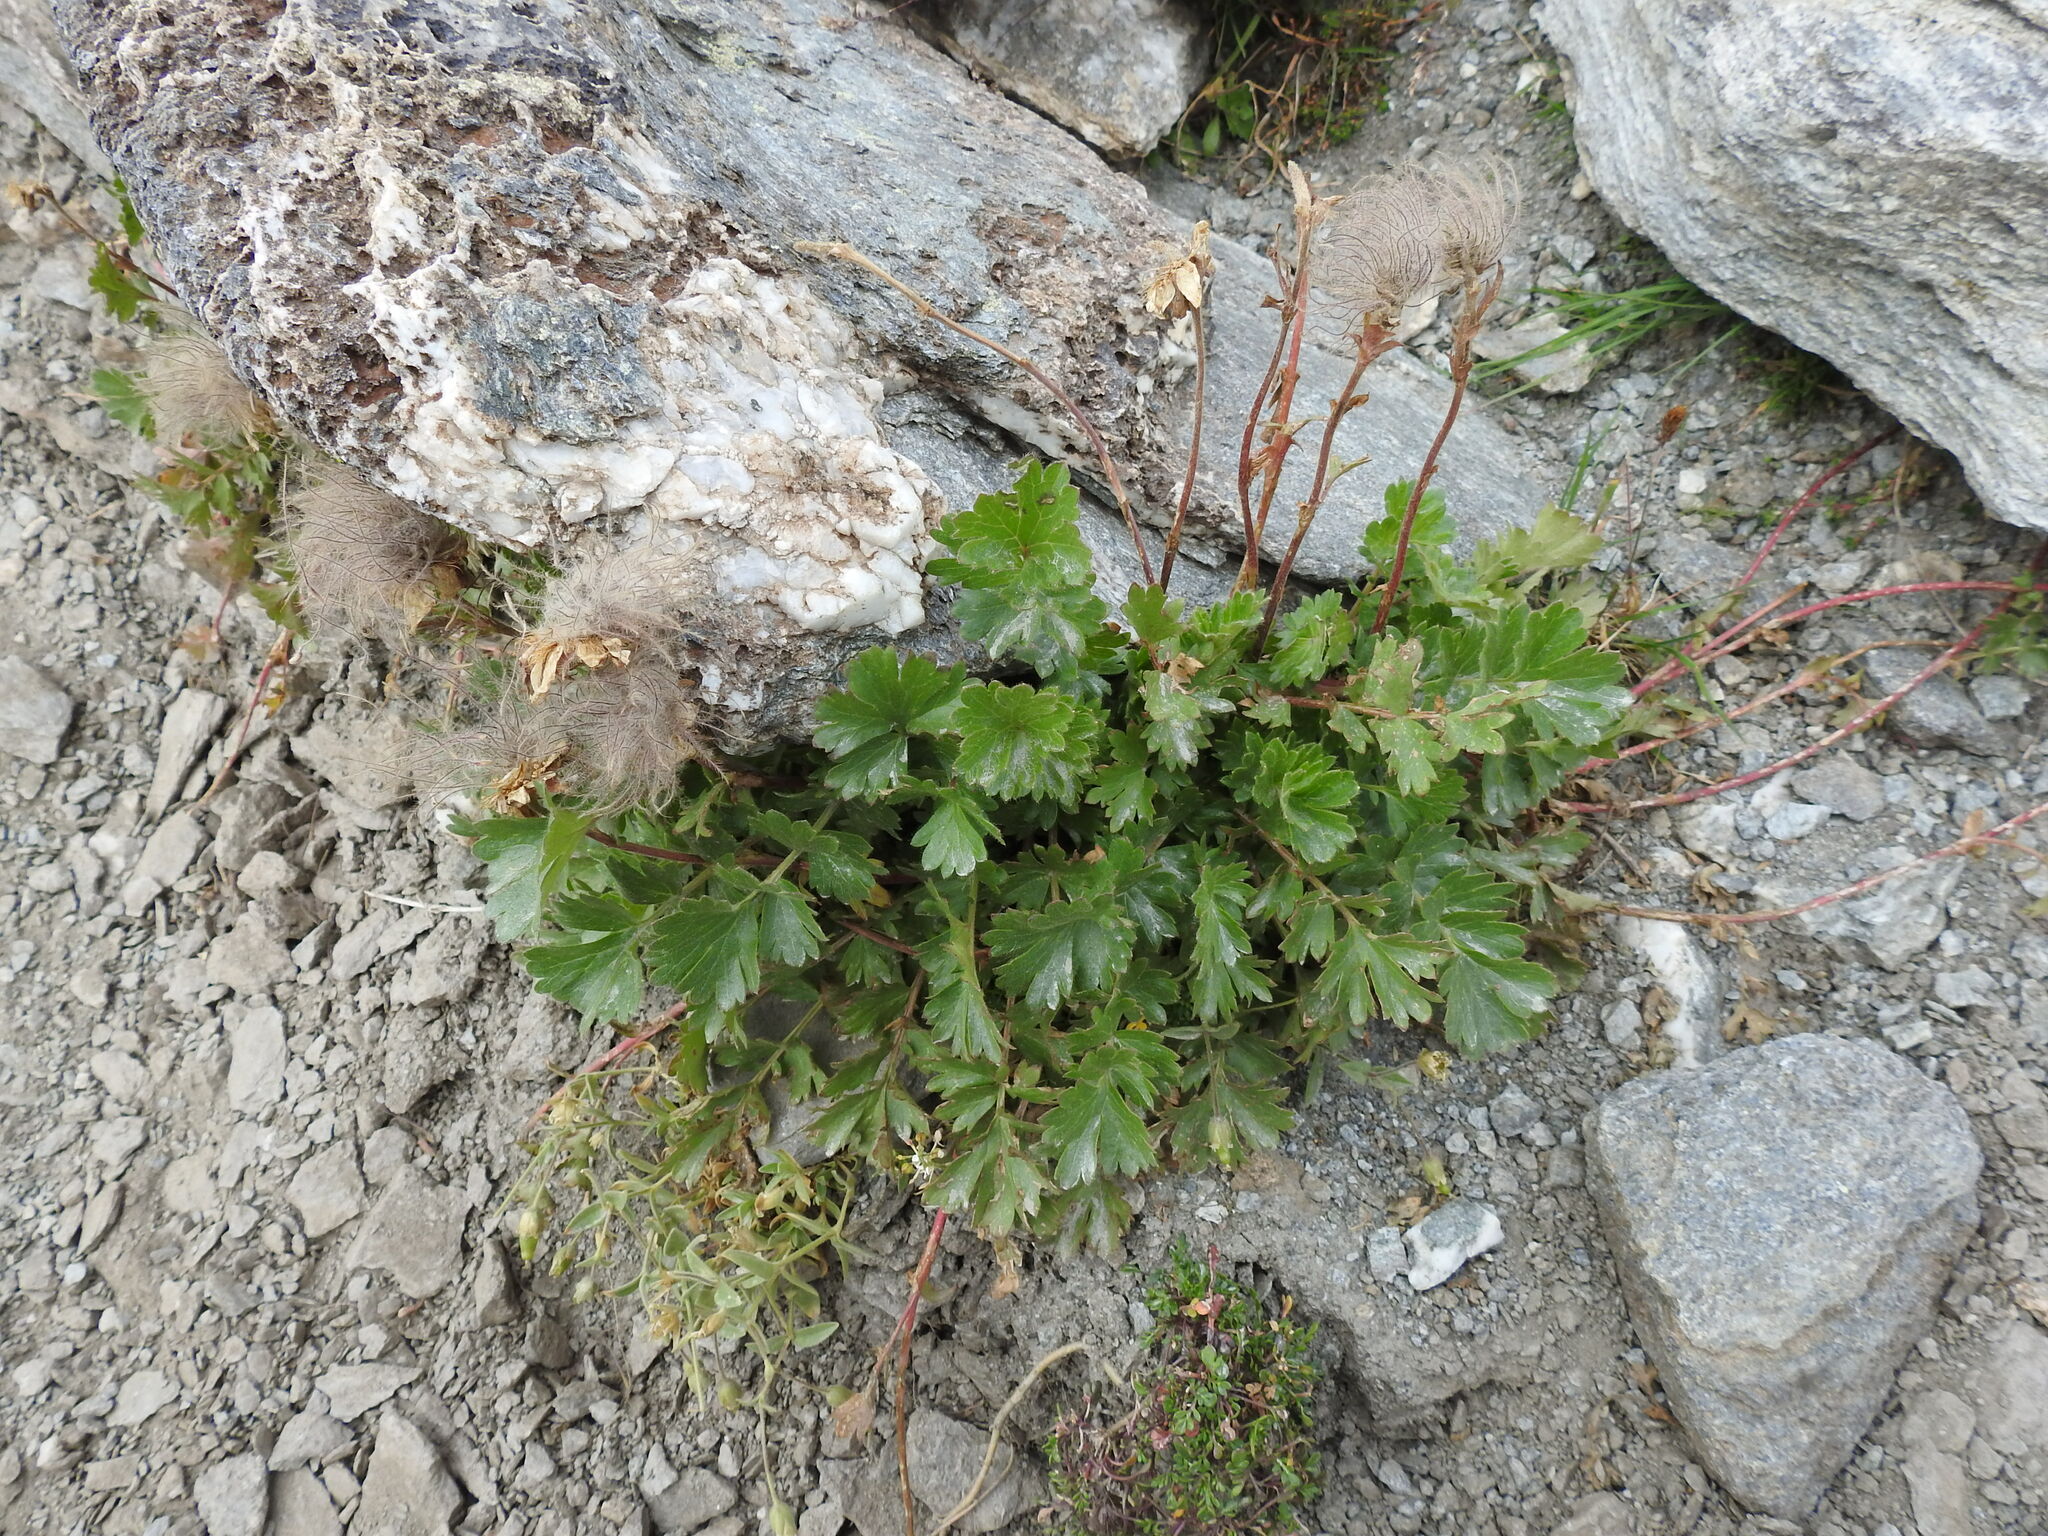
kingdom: Plantae
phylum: Tracheophyta
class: Magnoliopsida
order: Rosales
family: Rosaceae
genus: Geum
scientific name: Geum reptans
